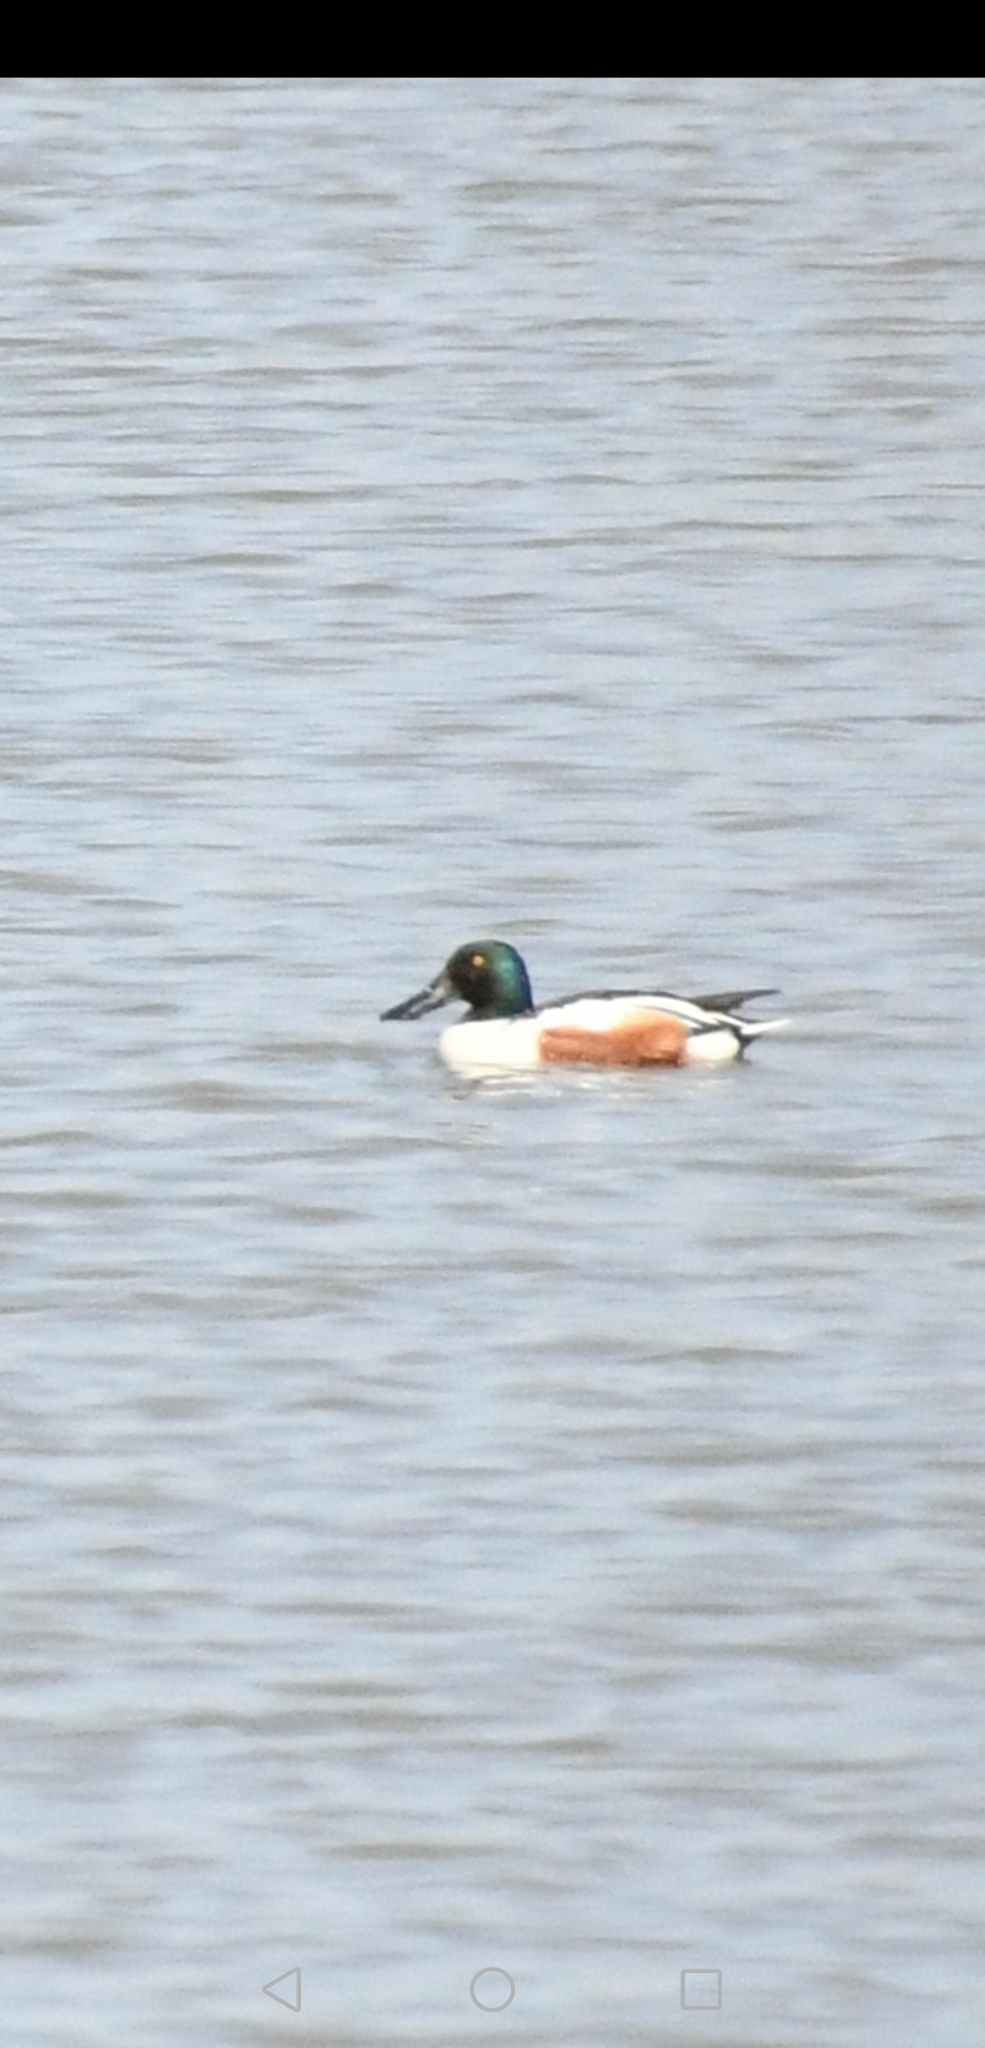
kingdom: Animalia
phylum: Chordata
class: Aves
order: Anseriformes
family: Anatidae
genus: Spatula
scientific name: Spatula clypeata
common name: Northern shoveler
